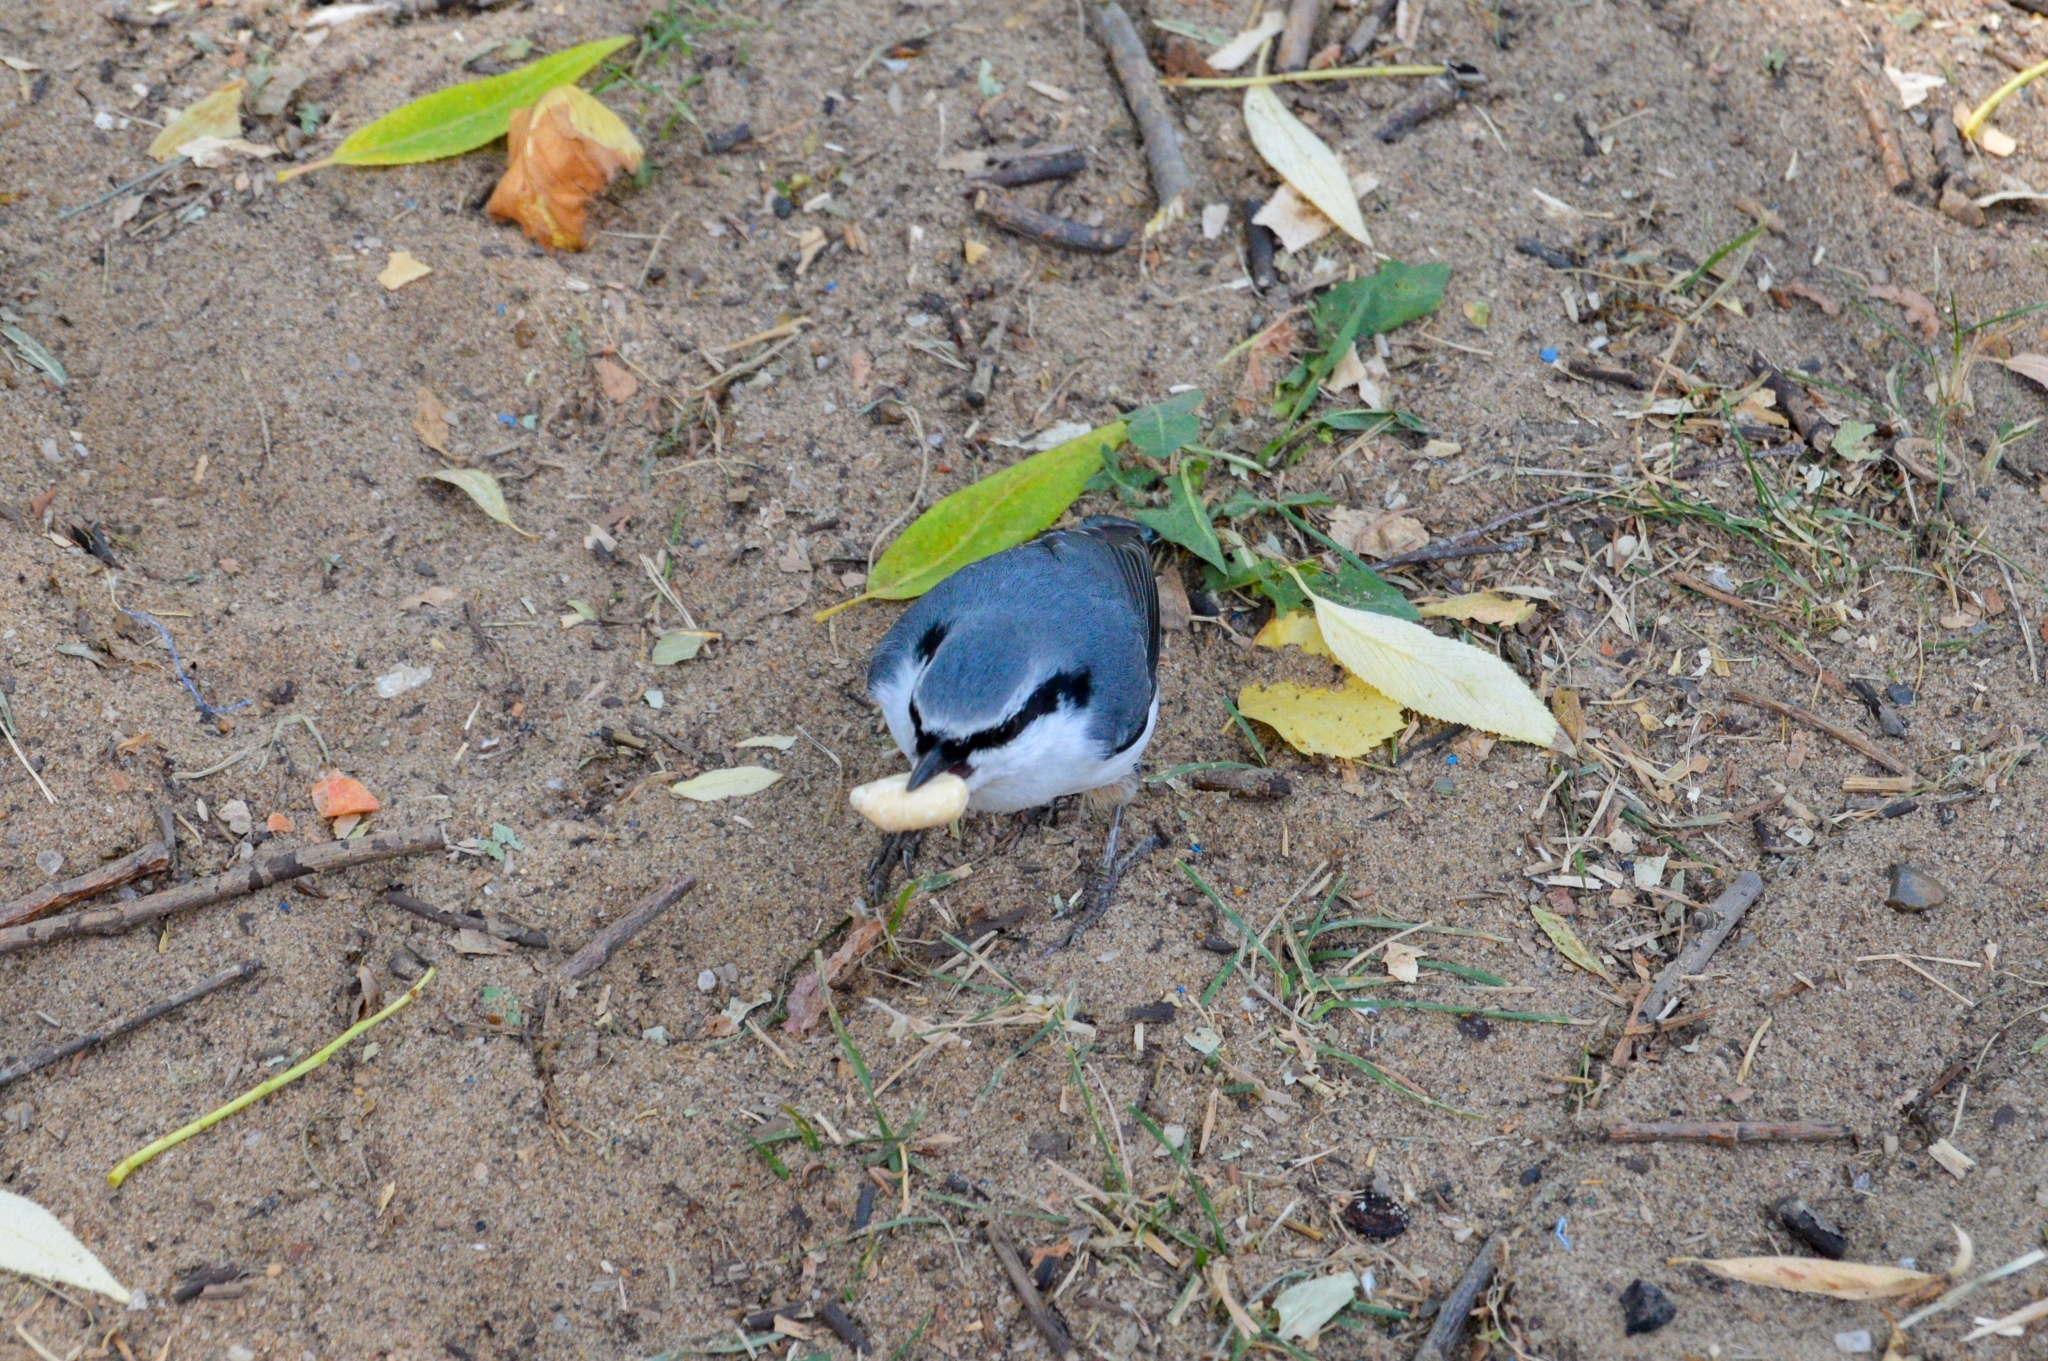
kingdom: Animalia
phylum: Chordata
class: Aves
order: Passeriformes
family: Sittidae
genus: Sitta
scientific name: Sitta europaea
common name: Eurasian nuthatch
